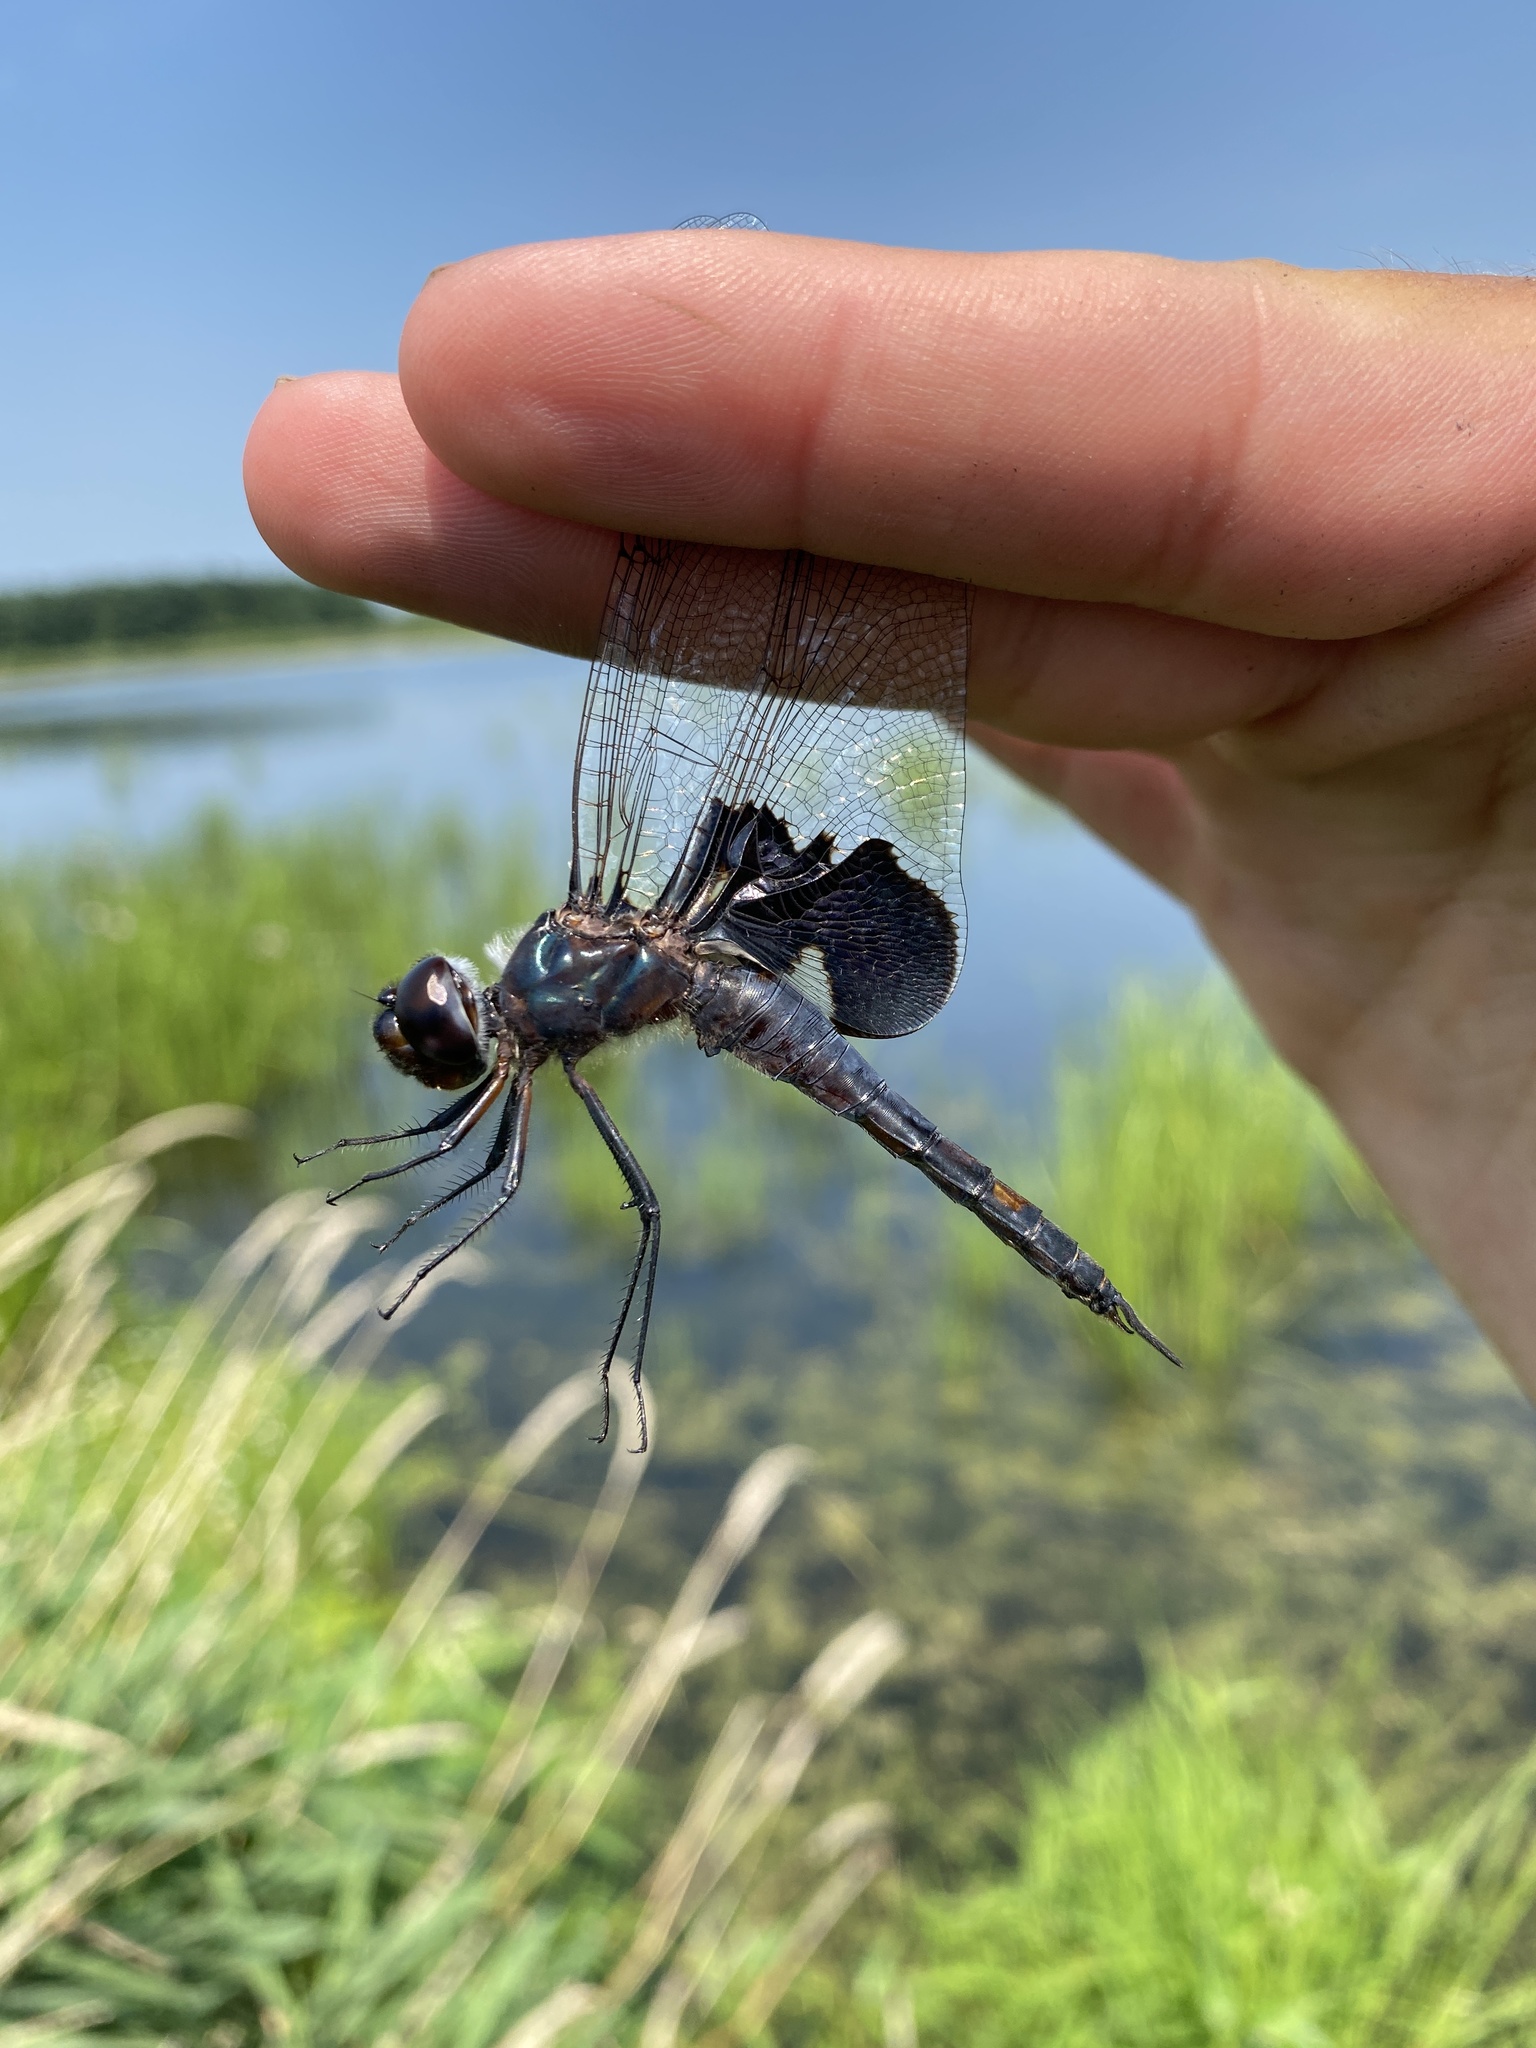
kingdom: Animalia
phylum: Arthropoda
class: Insecta
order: Odonata
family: Libellulidae
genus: Tramea
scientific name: Tramea lacerata
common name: Black saddlebags
